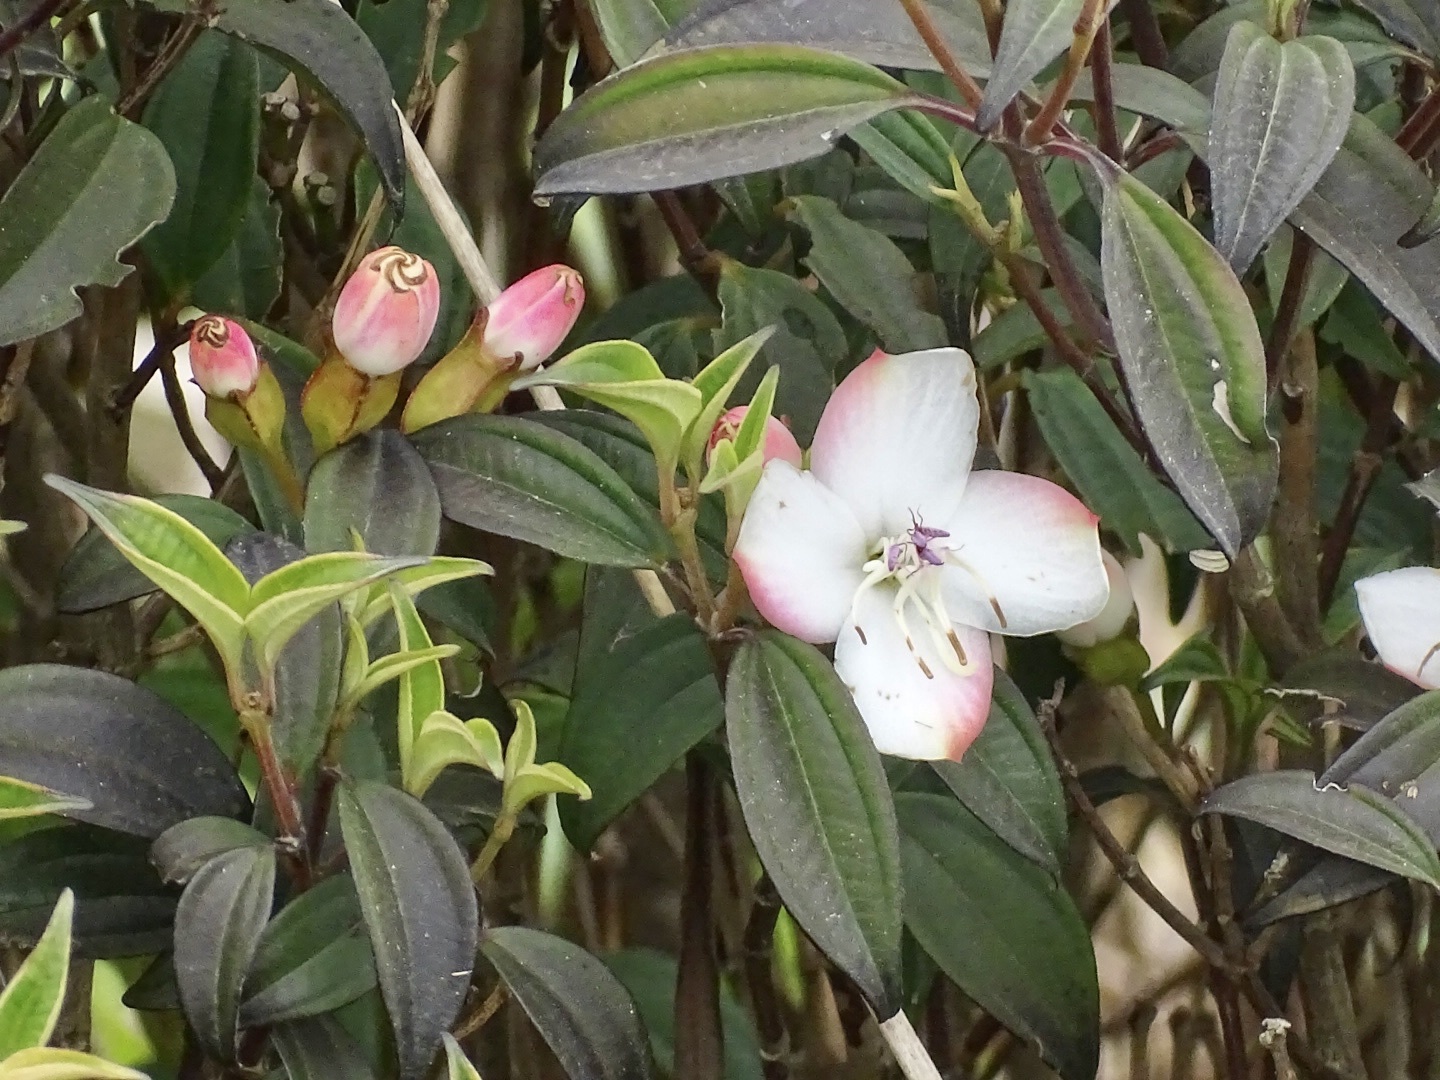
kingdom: Plantae
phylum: Tracheophyta
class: Magnoliopsida
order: Myrtales
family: Melastomataceae
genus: Barthea
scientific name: Barthea barthei
